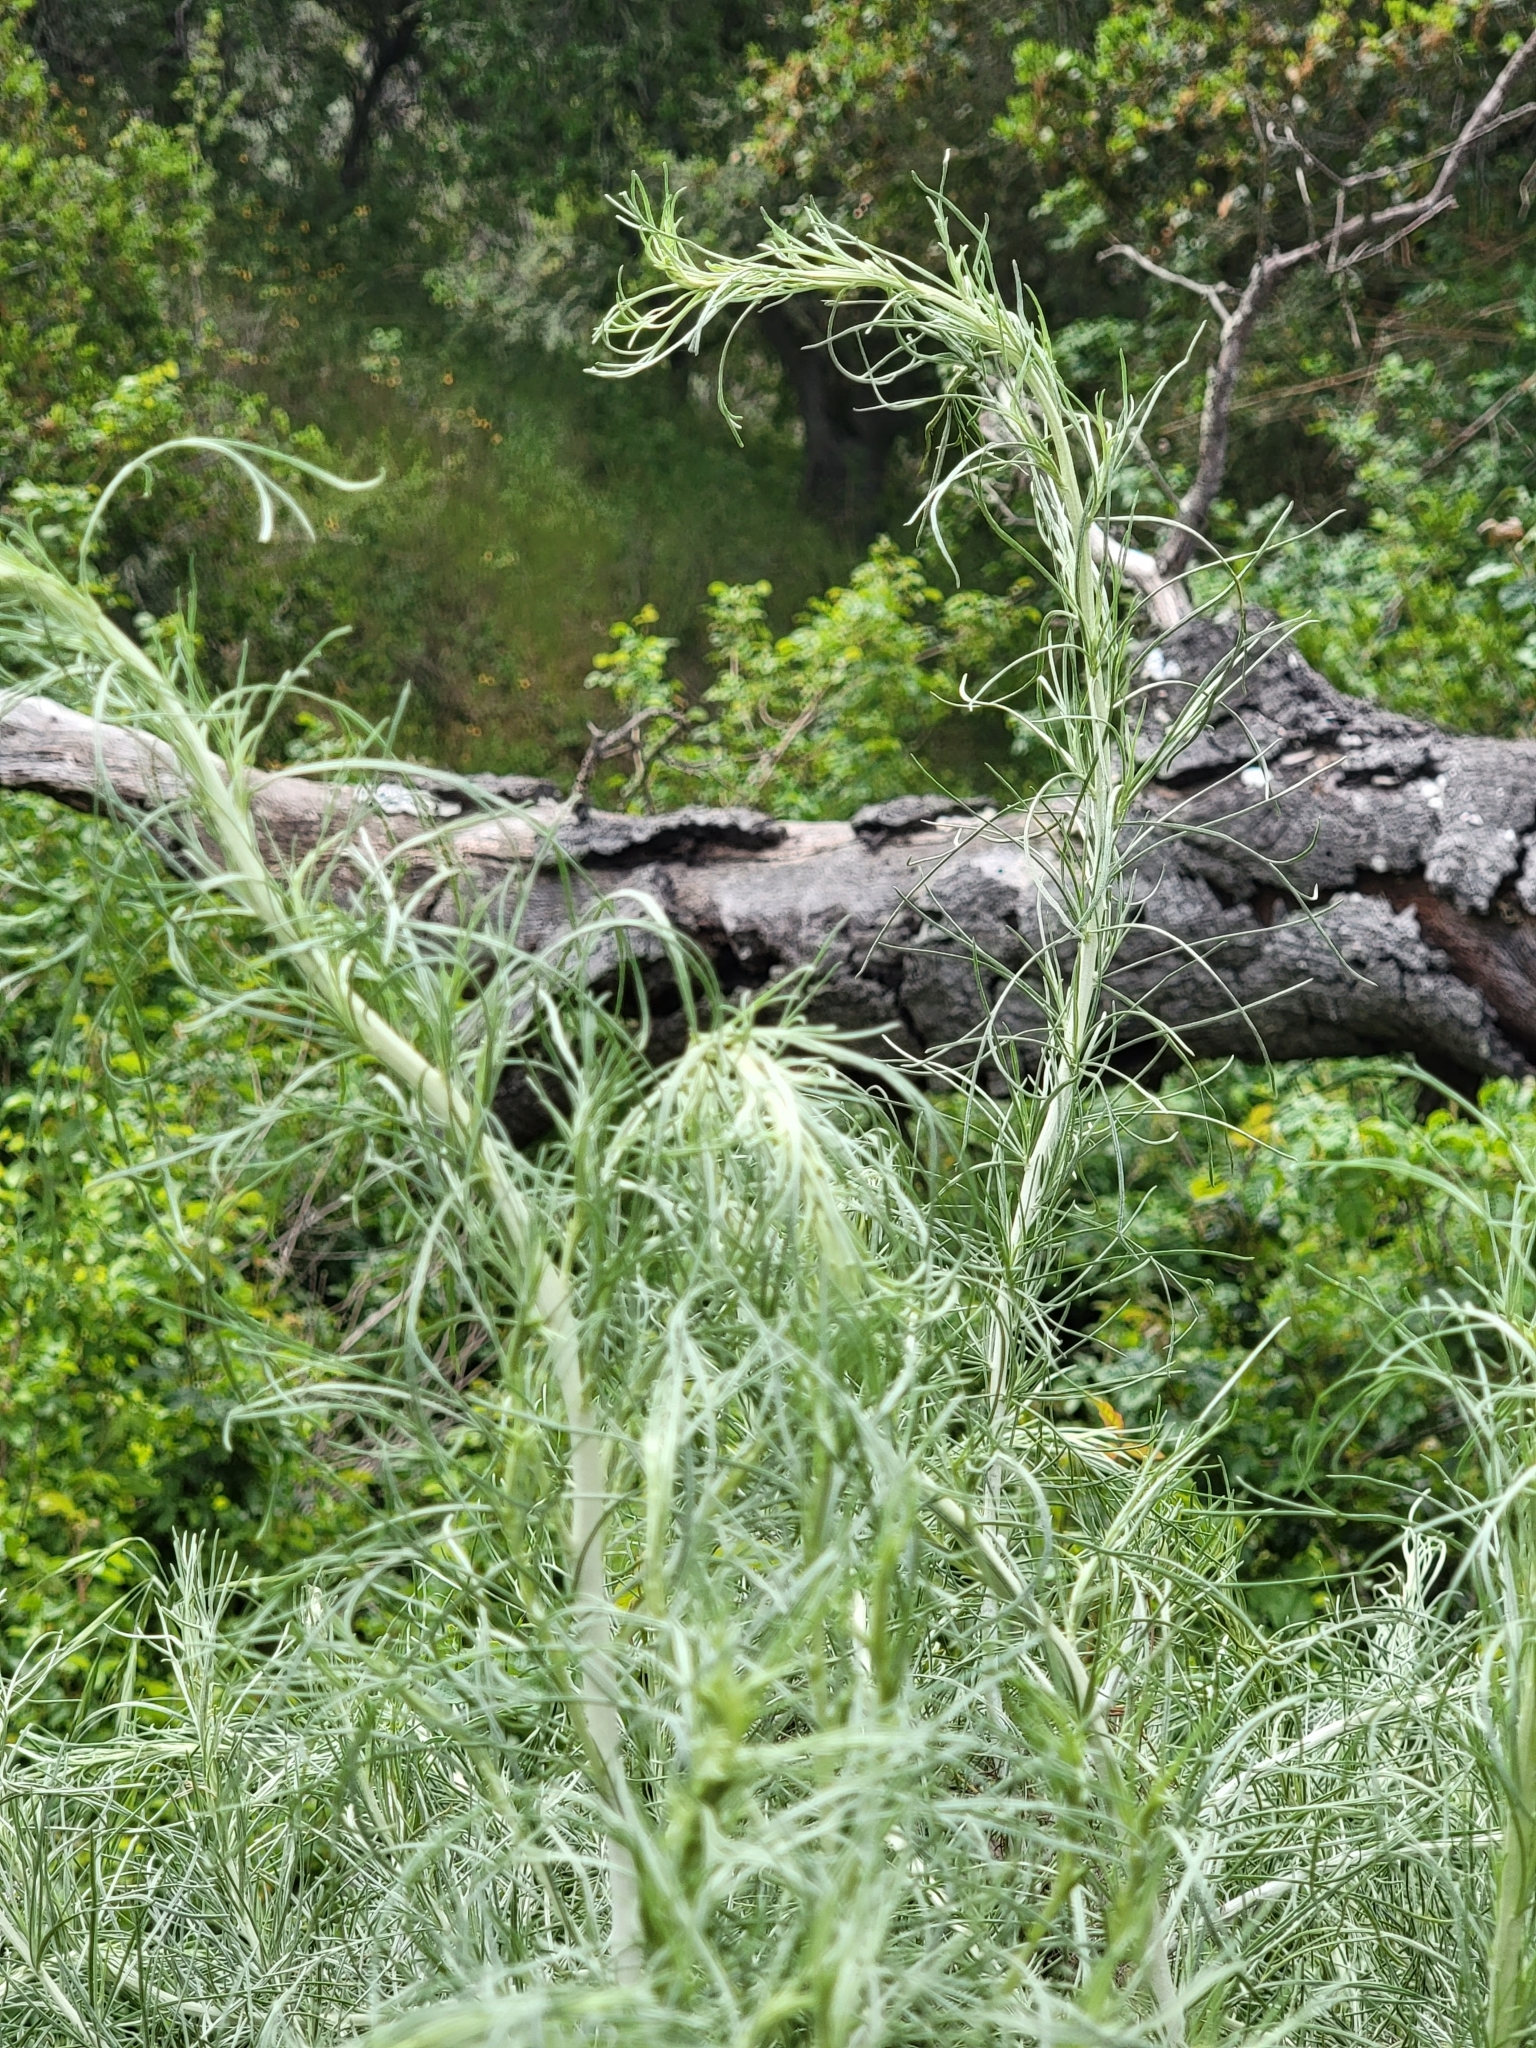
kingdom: Plantae
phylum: Tracheophyta
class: Magnoliopsida
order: Asterales
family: Asteraceae
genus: Artemisia
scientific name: Artemisia californica
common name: California sagebrush
